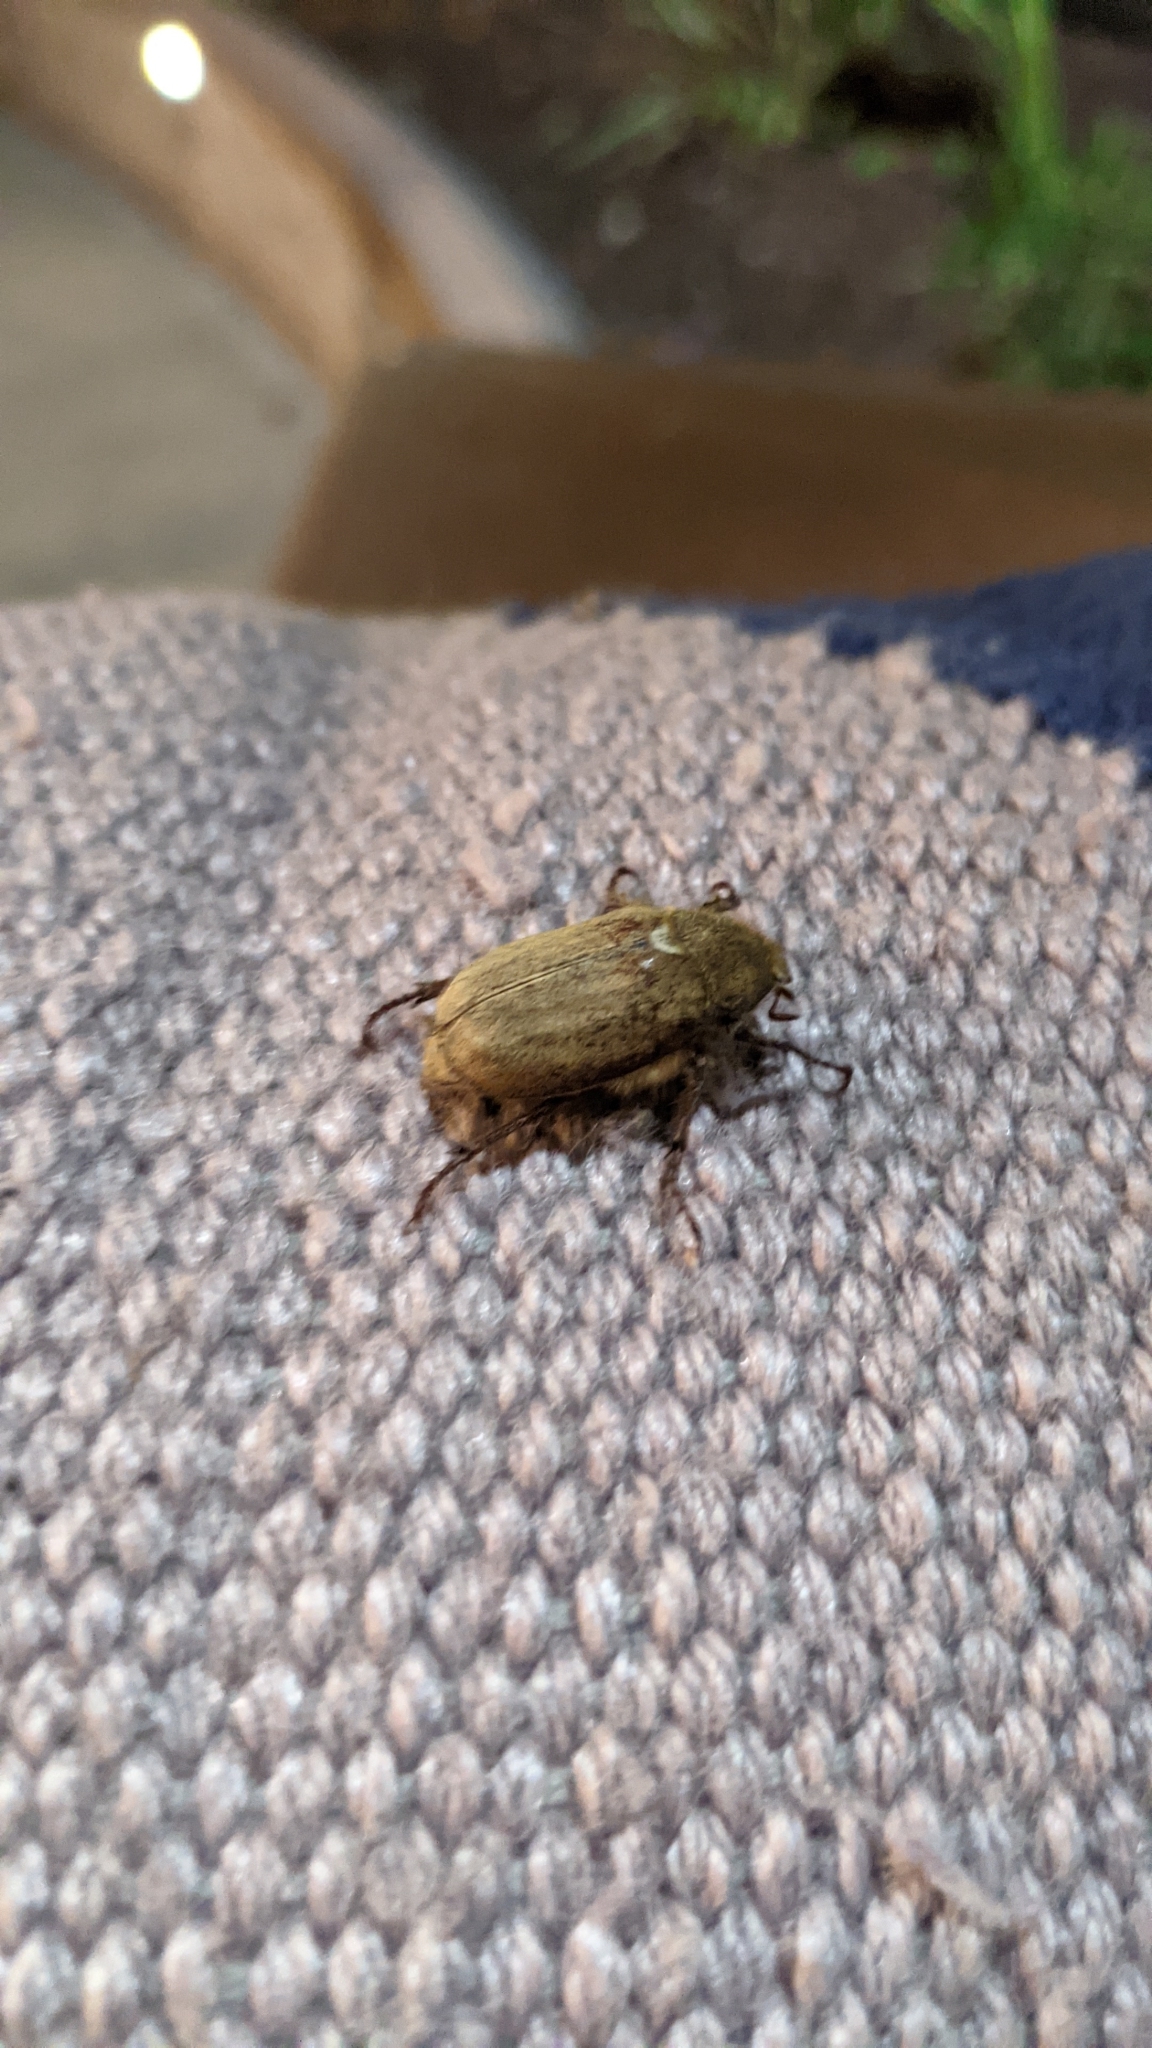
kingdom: Animalia
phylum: Arthropoda
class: Insecta
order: Coleoptera
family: Scarabaeidae
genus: Amblonoxia
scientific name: Amblonoxia palpalis
